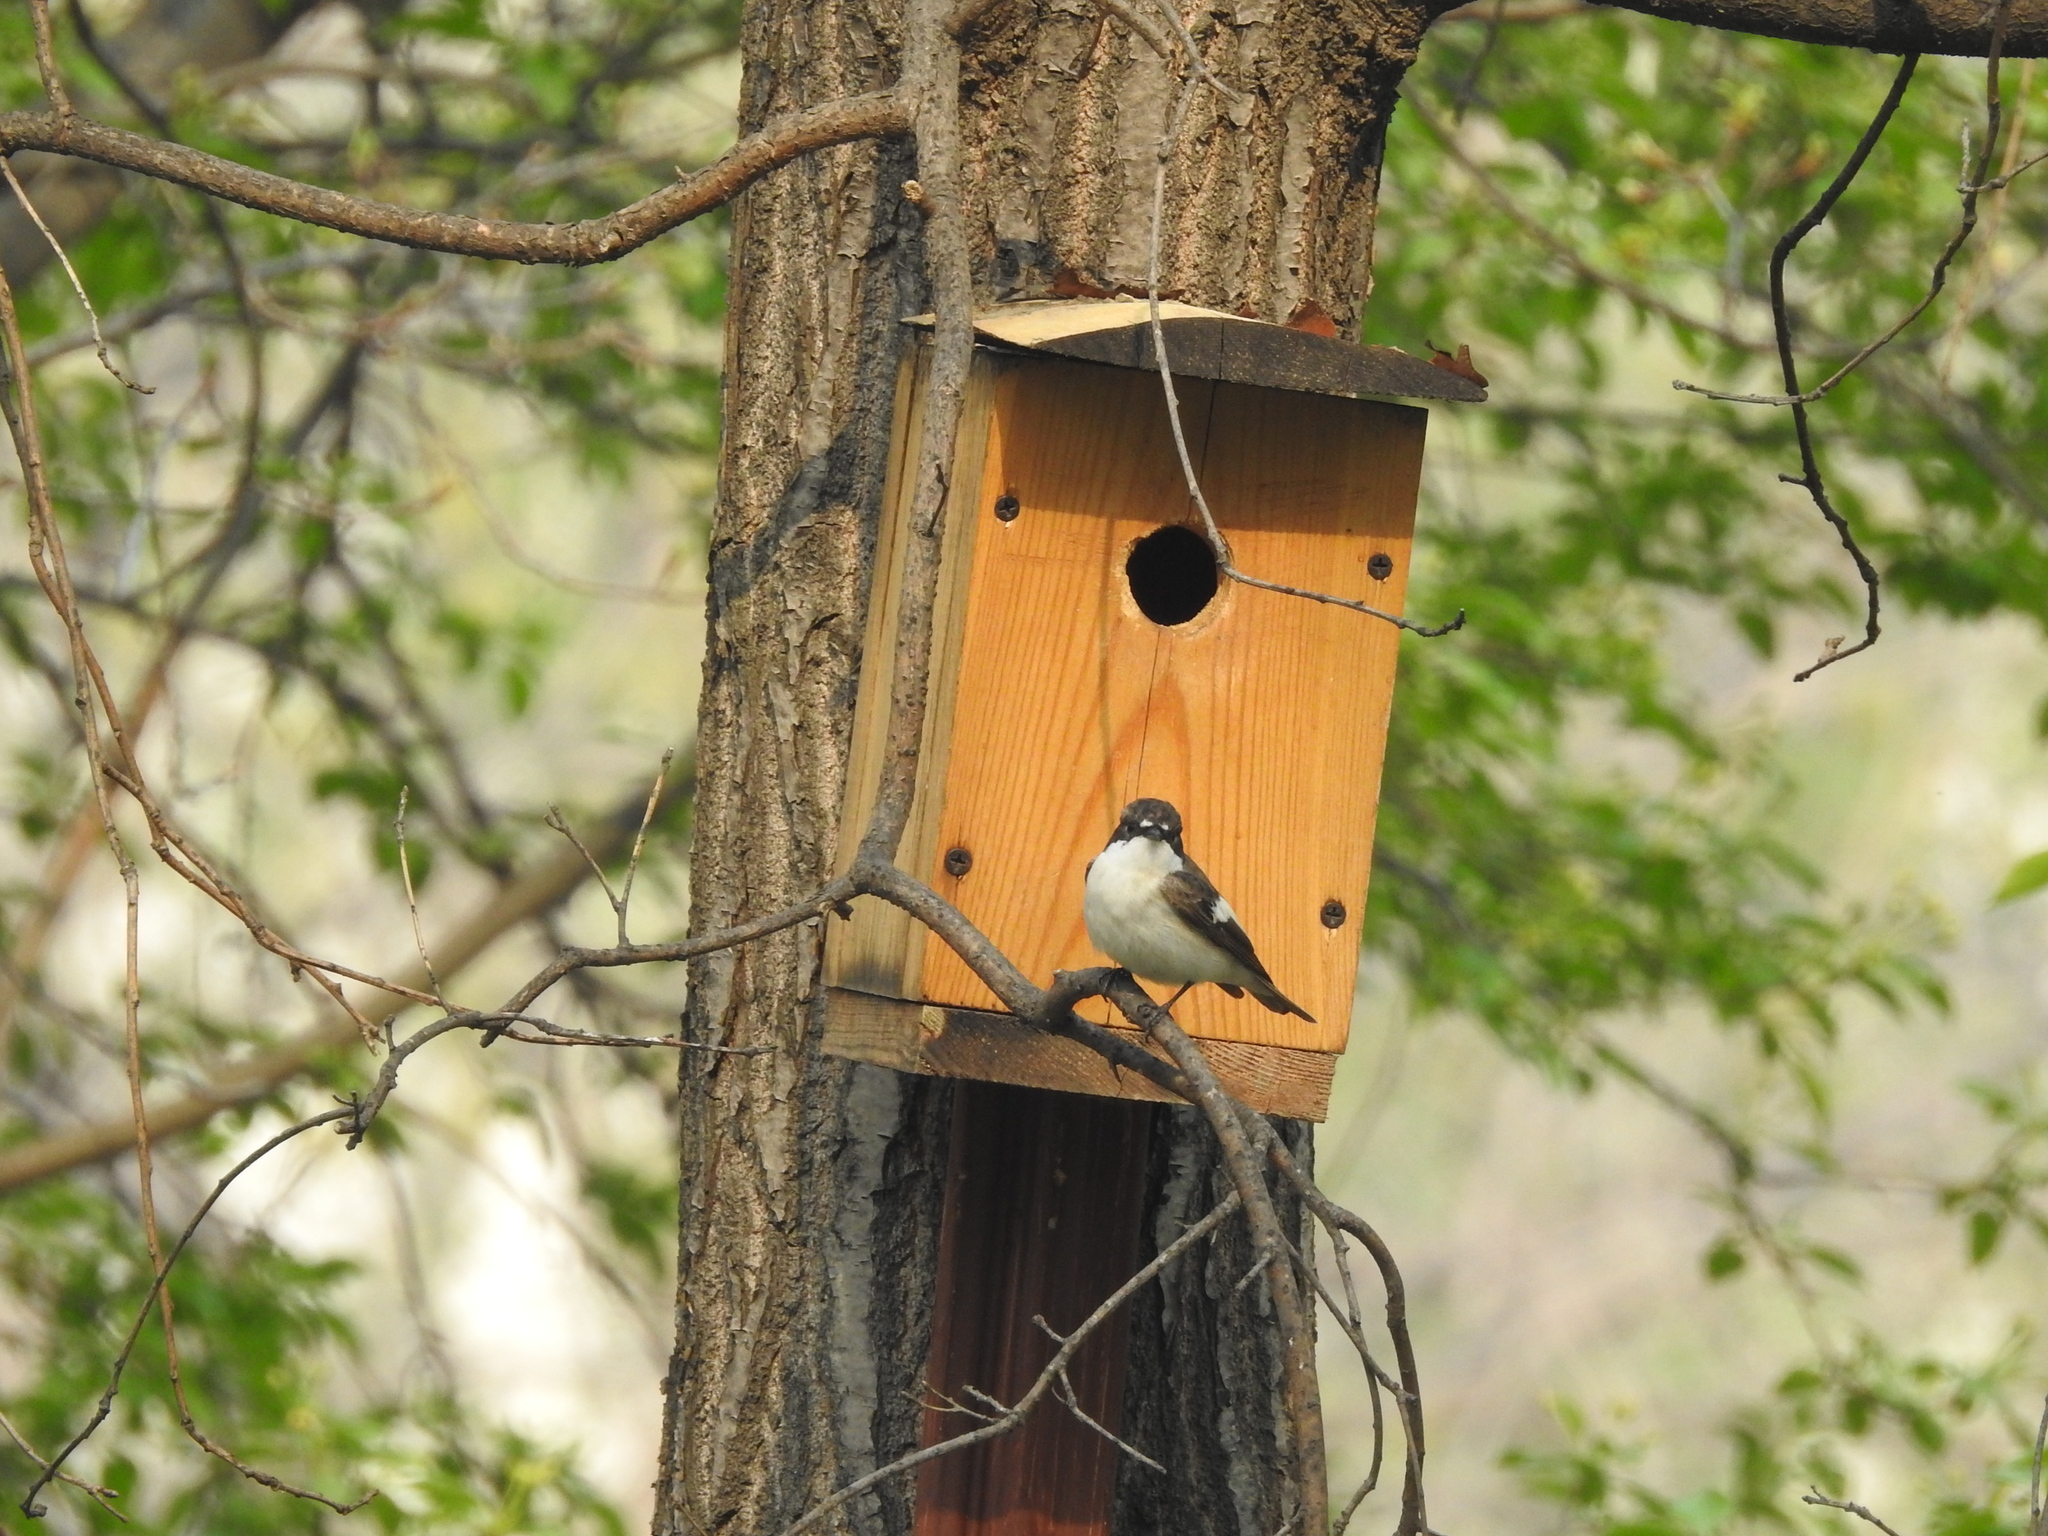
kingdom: Animalia
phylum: Chordata
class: Aves
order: Passeriformes
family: Muscicapidae
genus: Ficedula
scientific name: Ficedula hypoleuca
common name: European pied flycatcher
